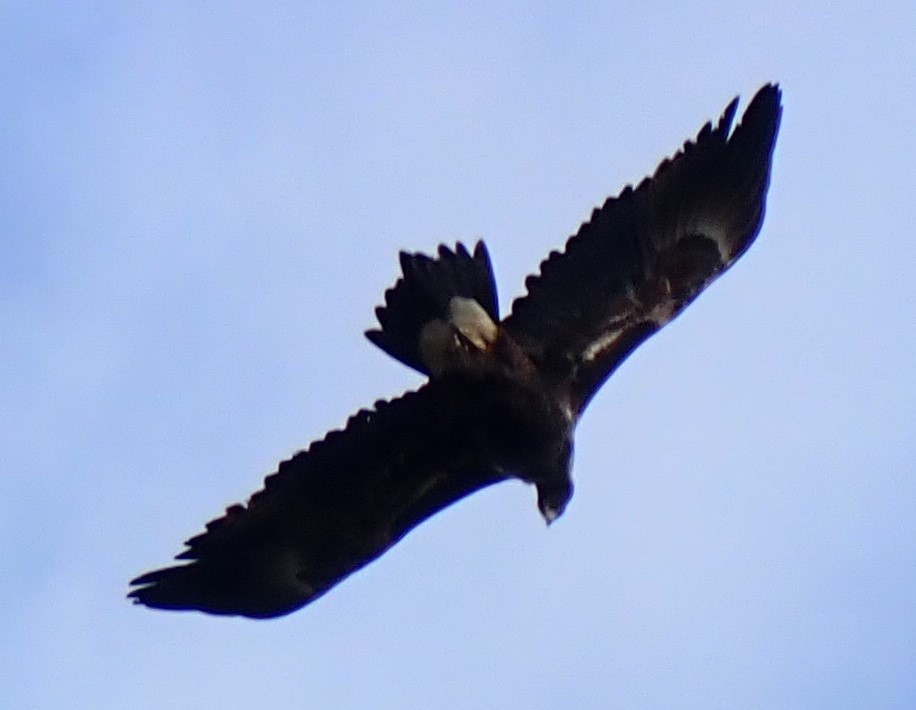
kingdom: Animalia
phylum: Chordata
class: Aves
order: Accipitriformes
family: Accipitridae
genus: Aquila
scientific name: Aquila audax
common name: Wedge-tailed eagle
